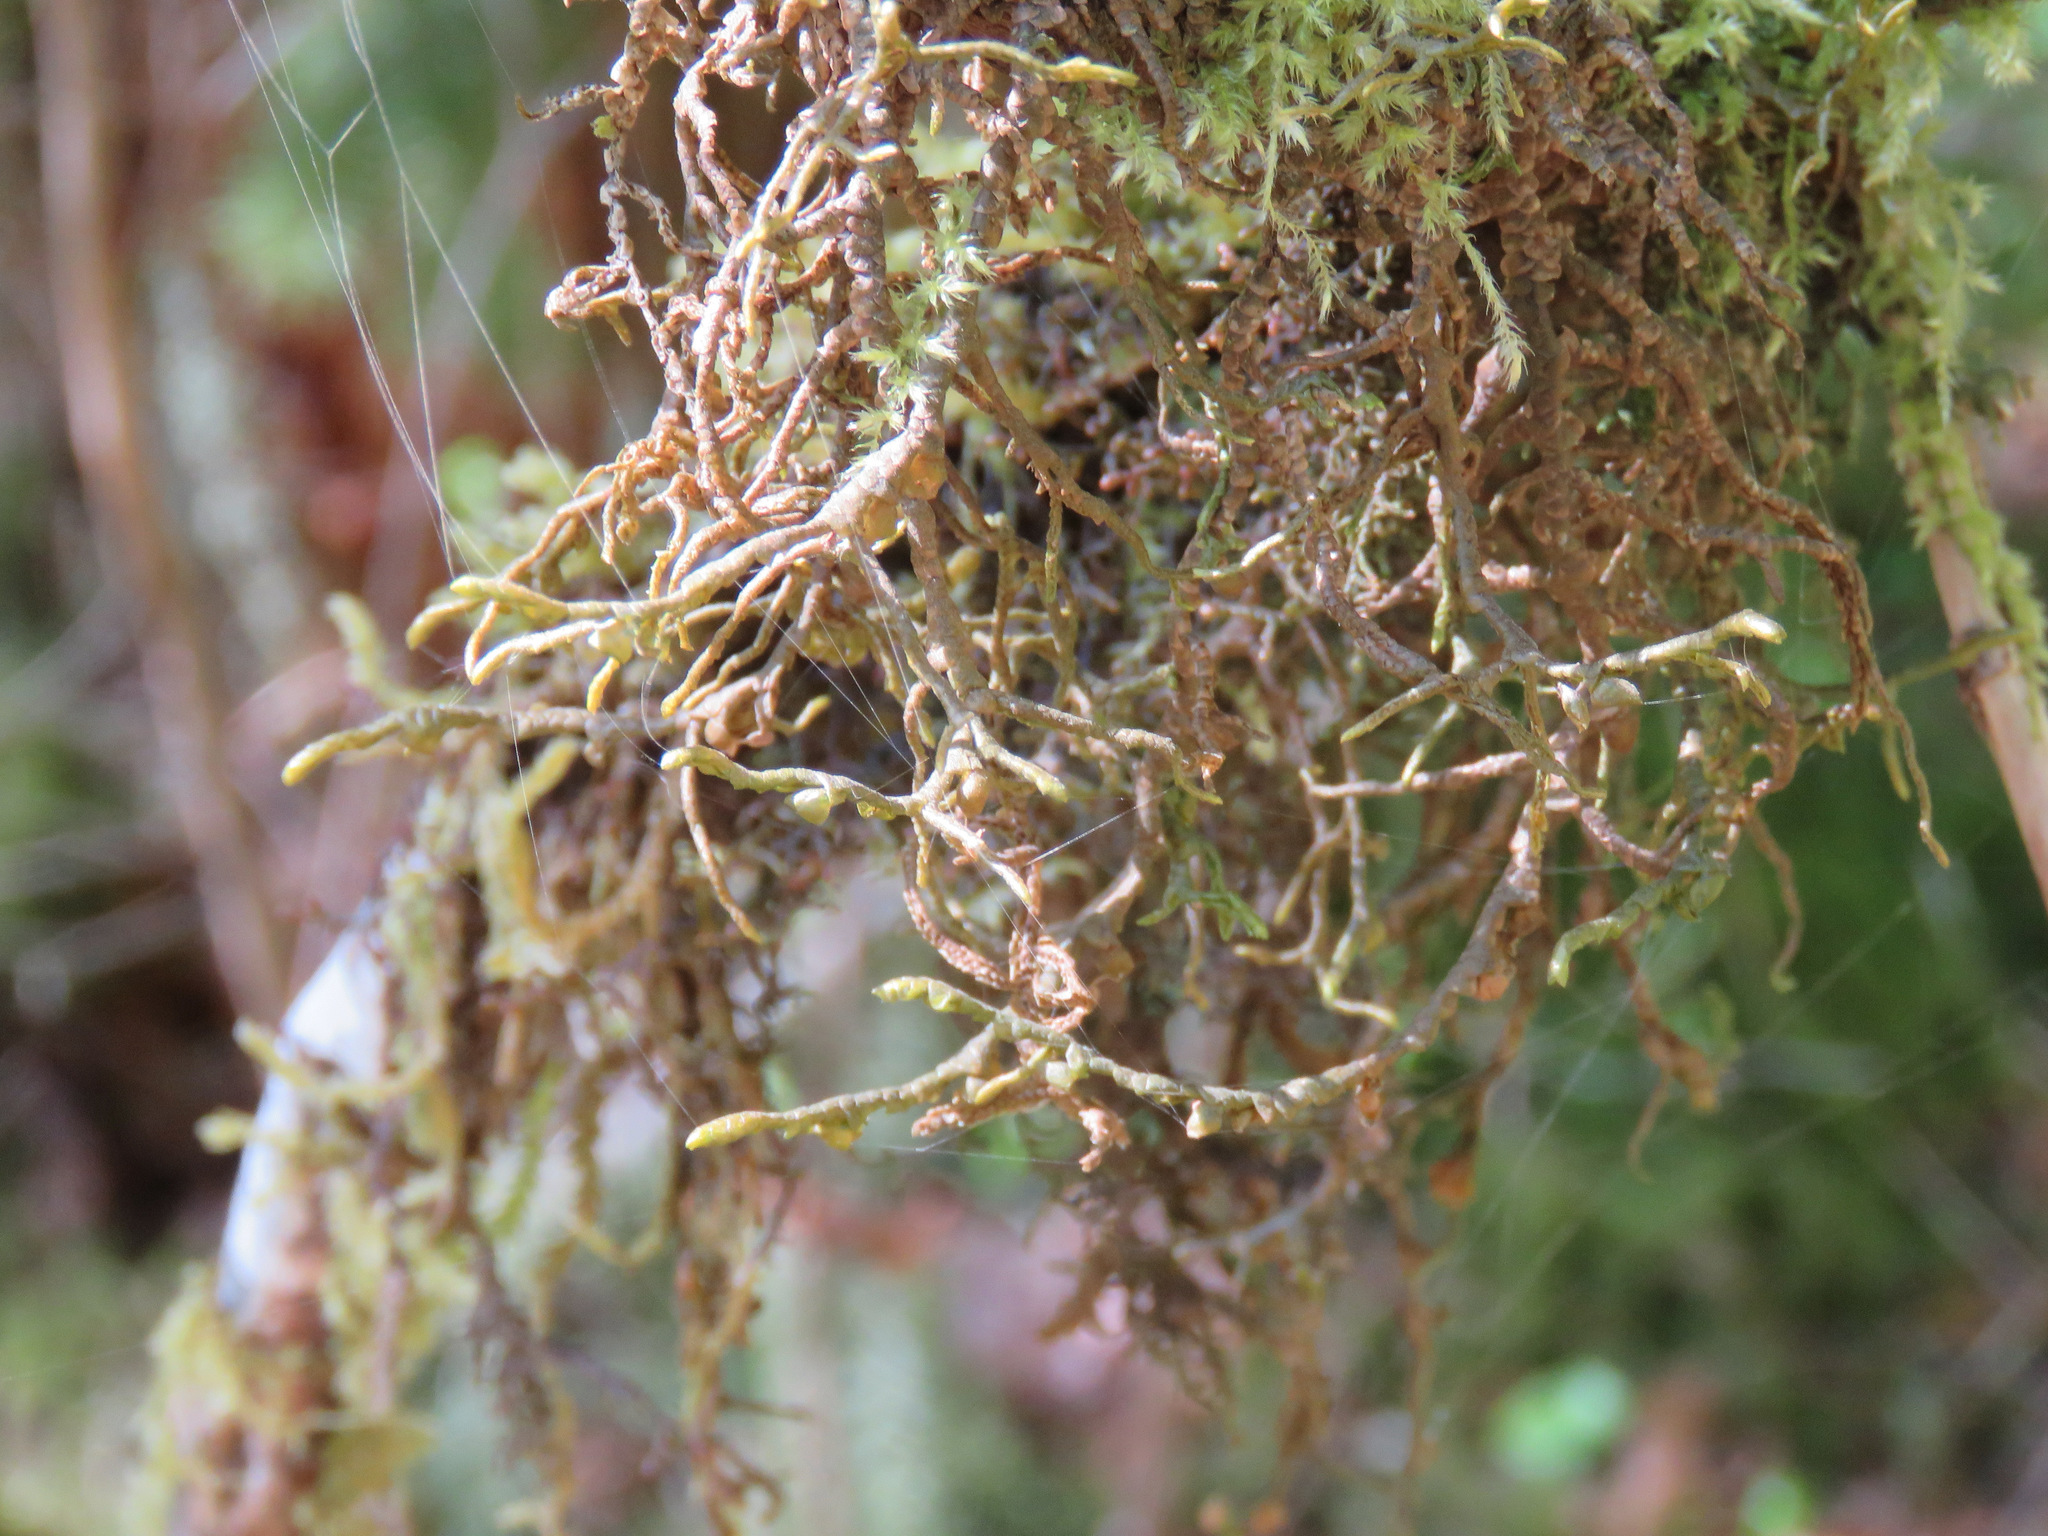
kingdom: Plantae
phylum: Marchantiophyta
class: Jungermanniopsida
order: Porellales
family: Porellaceae
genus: Porella
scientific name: Porella navicularis
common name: Tree ruffle liverwort
